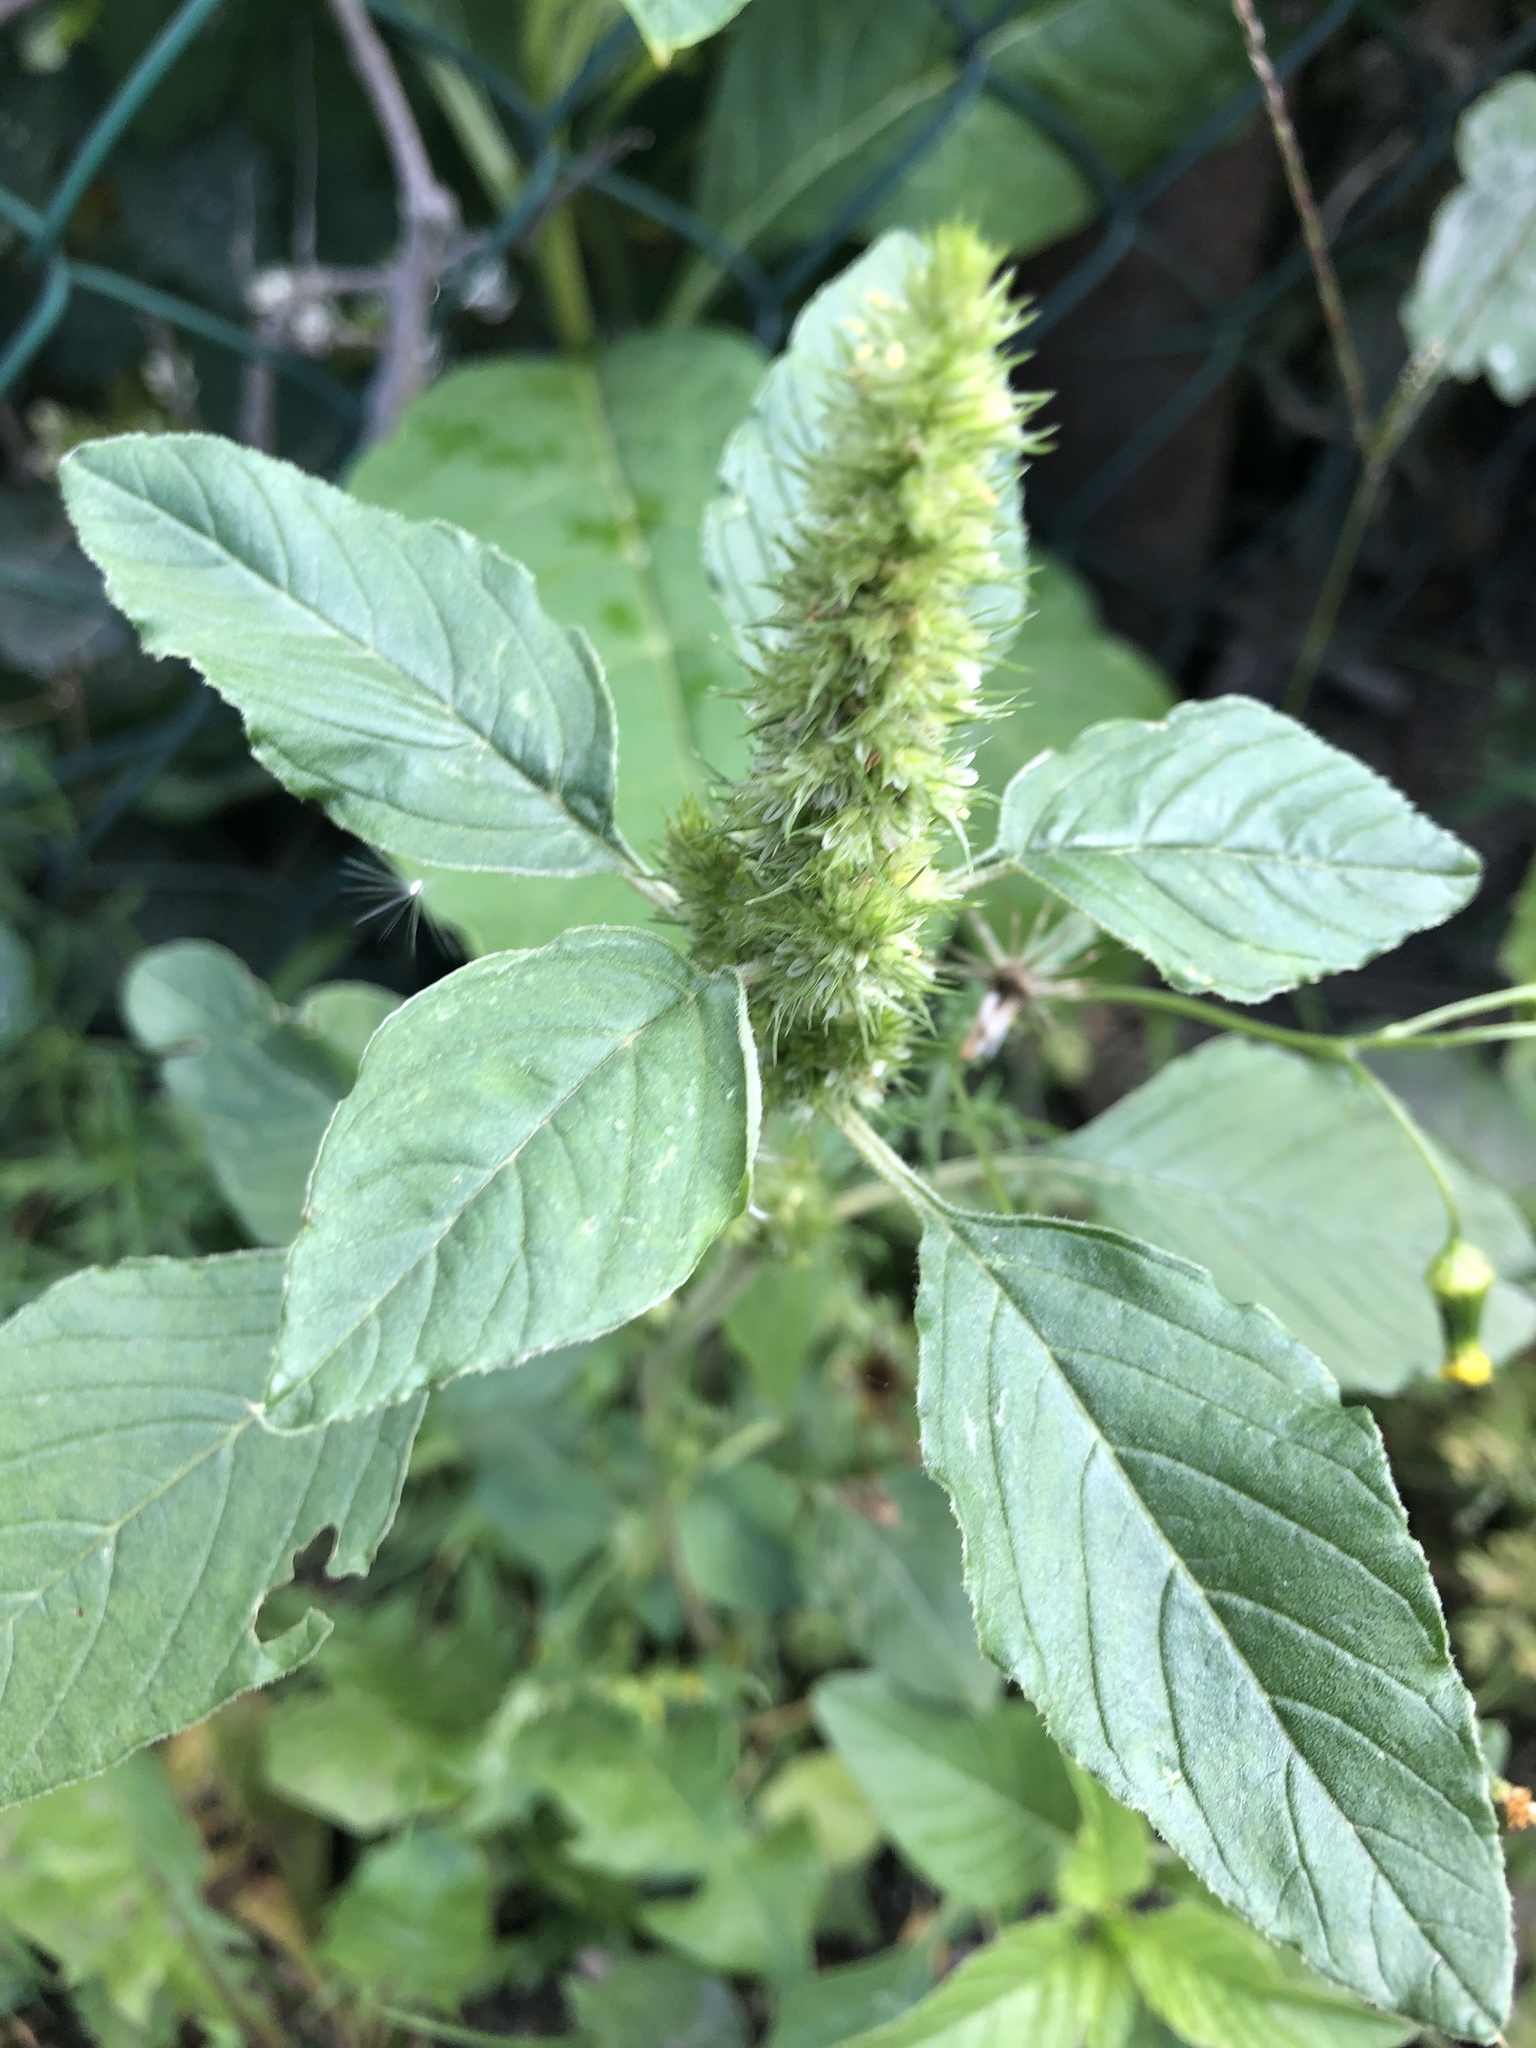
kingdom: Plantae
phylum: Tracheophyta
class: Magnoliopsida
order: Caryophyllales
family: Amaranthaceae
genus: Amaranthus
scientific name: Amaranthus retroflexus
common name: Redroot amaranth
